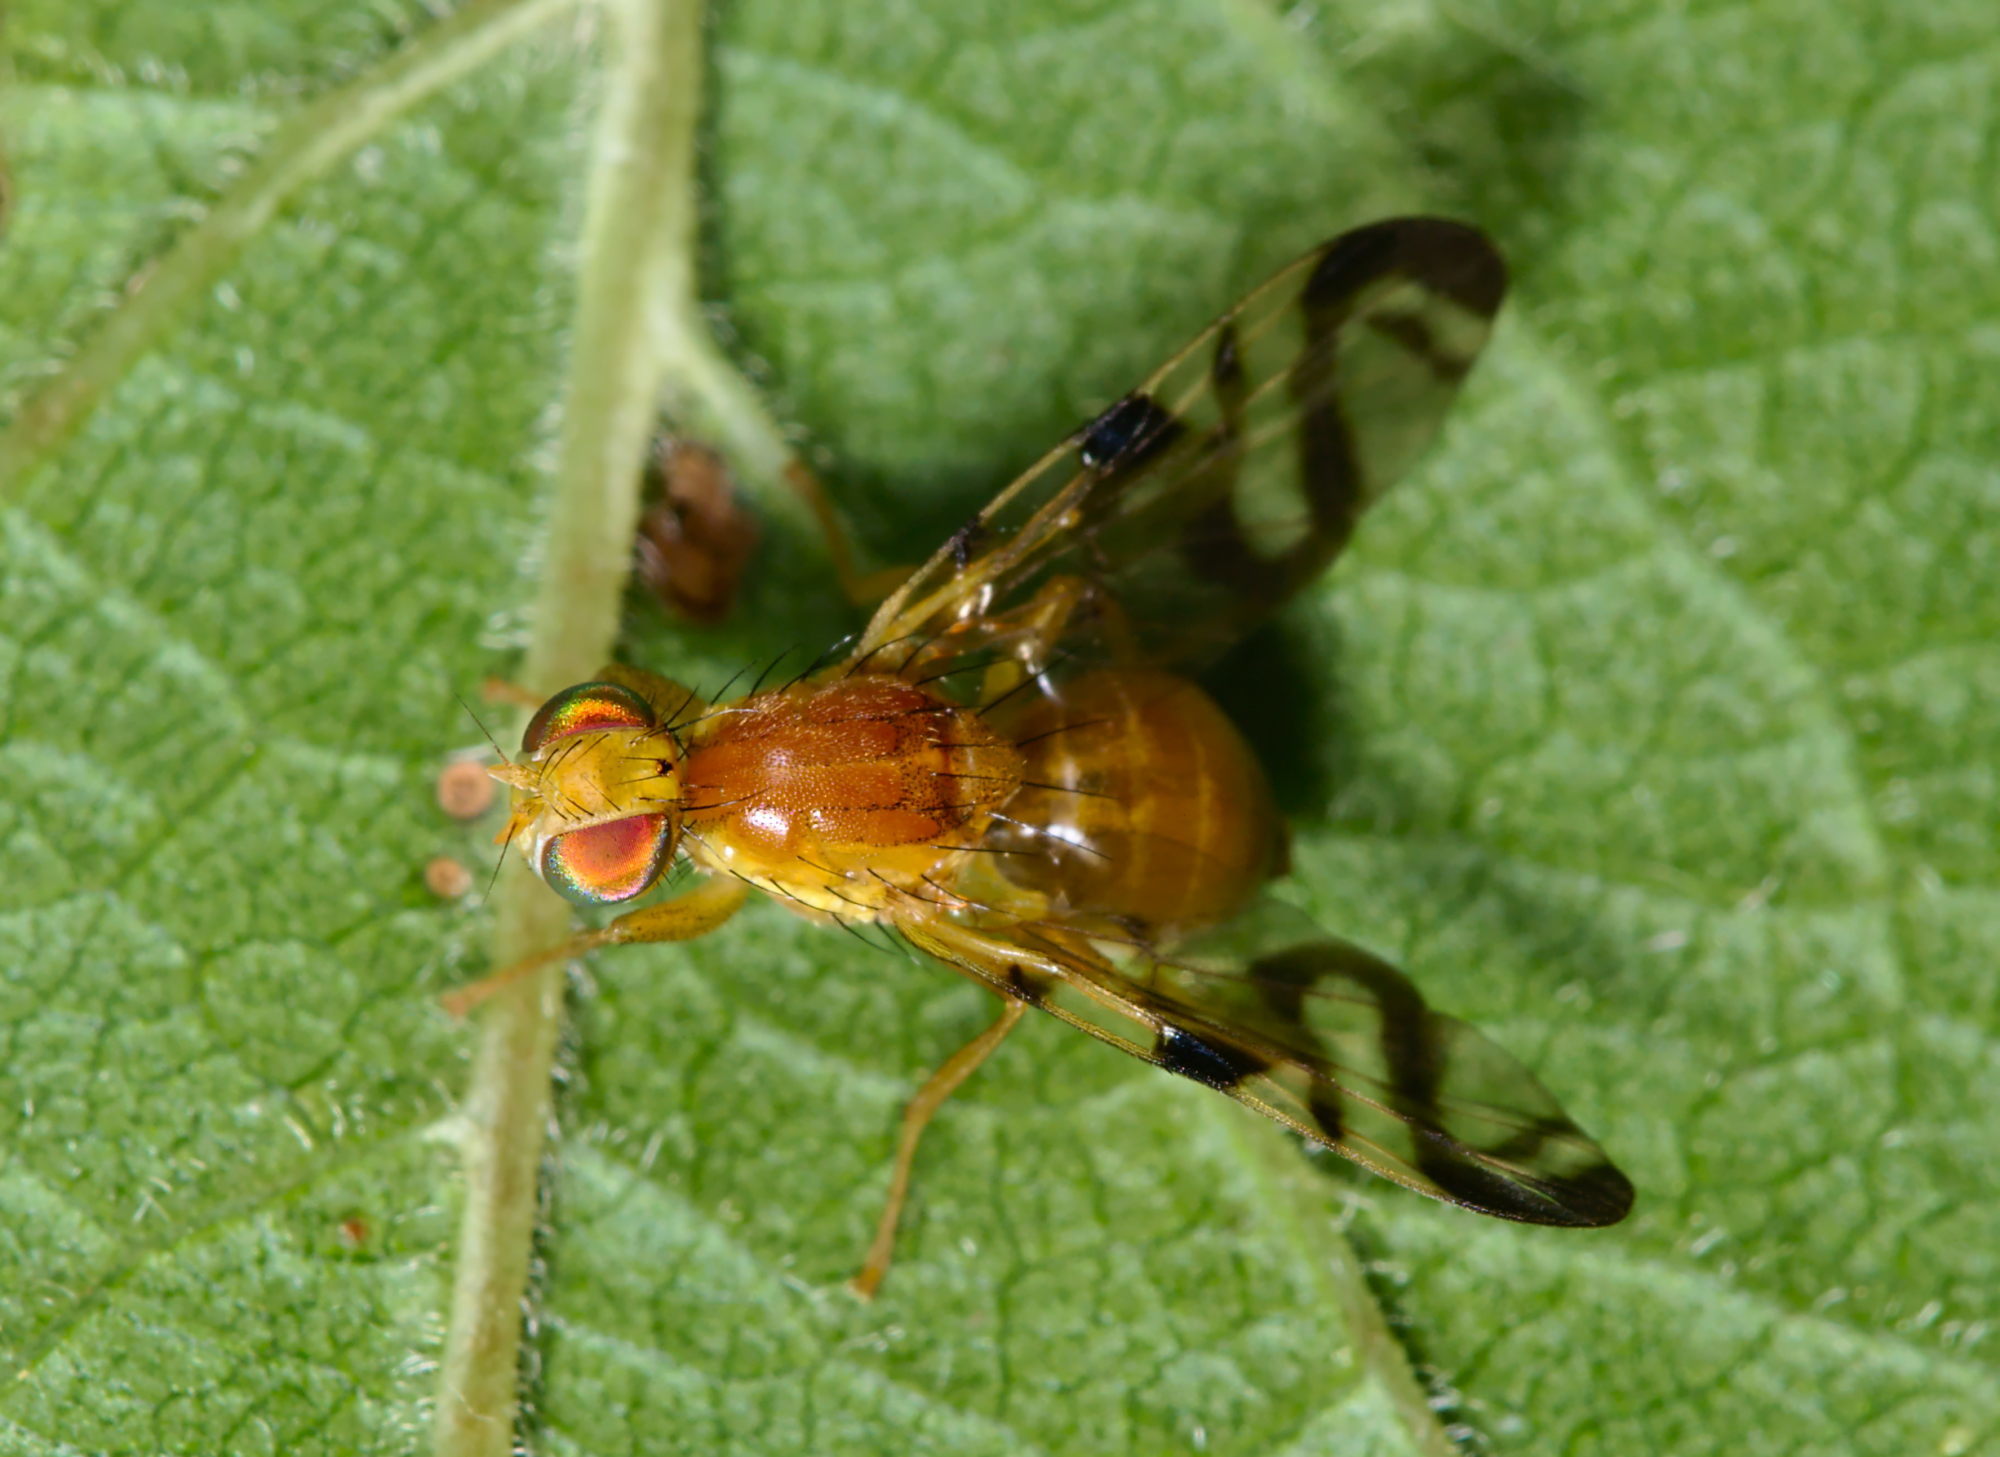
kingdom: Animalia
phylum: Arthropoda
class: Insecta
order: Diptera
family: Tephritidae
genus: Acidia
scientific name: Acidia cognata
